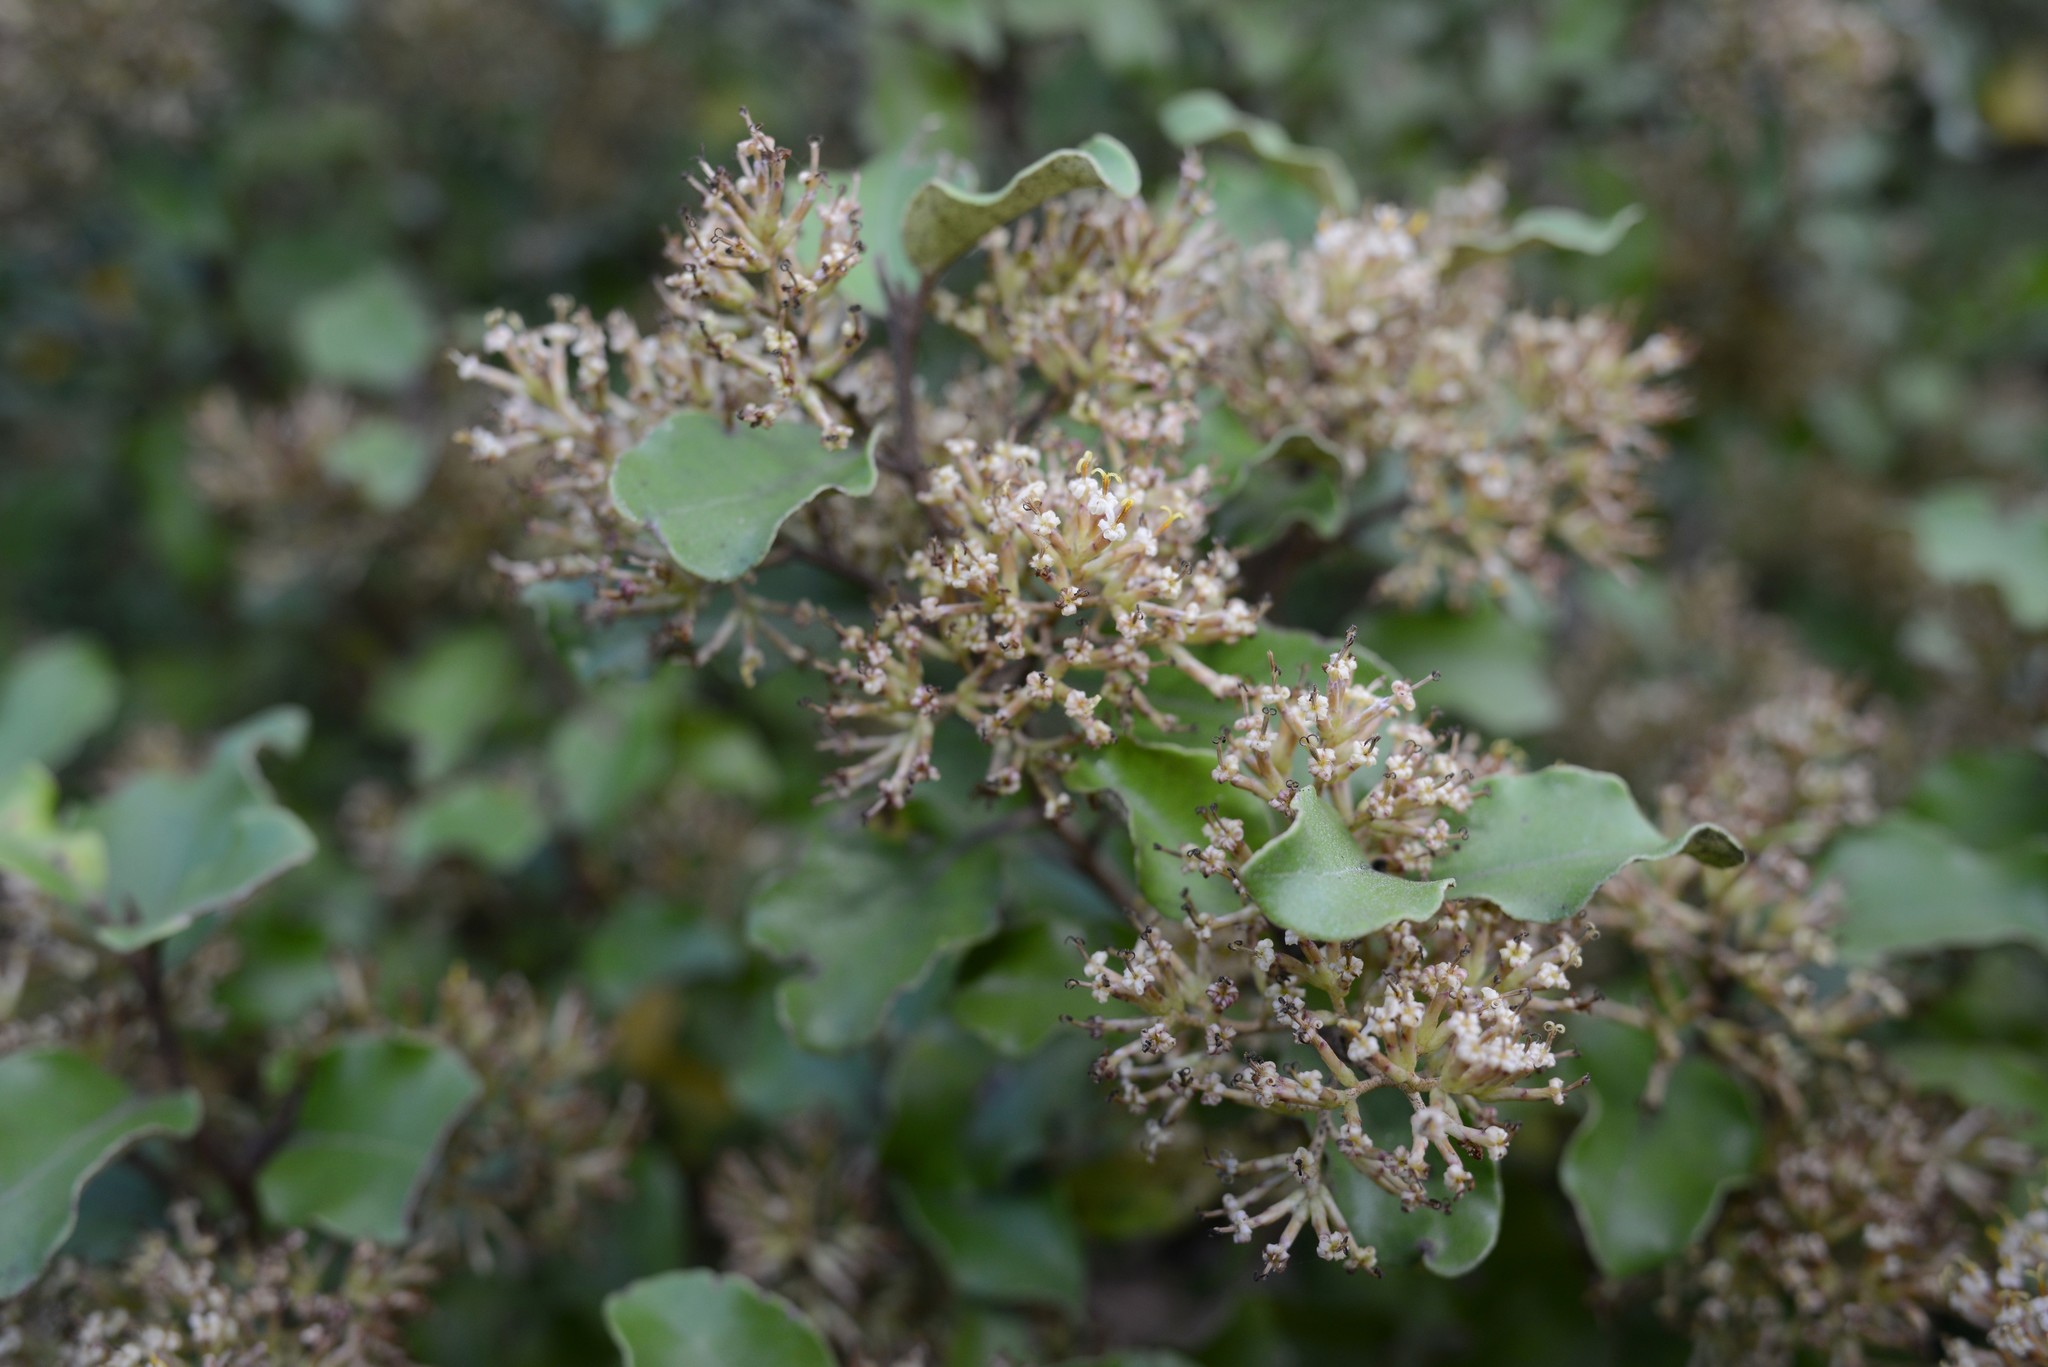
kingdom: Plantae
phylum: Tracheophyta
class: Magnoliopsida
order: Asterales
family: Asteraceae
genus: Olearia
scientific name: Olearia paniculata
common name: Akiraho
